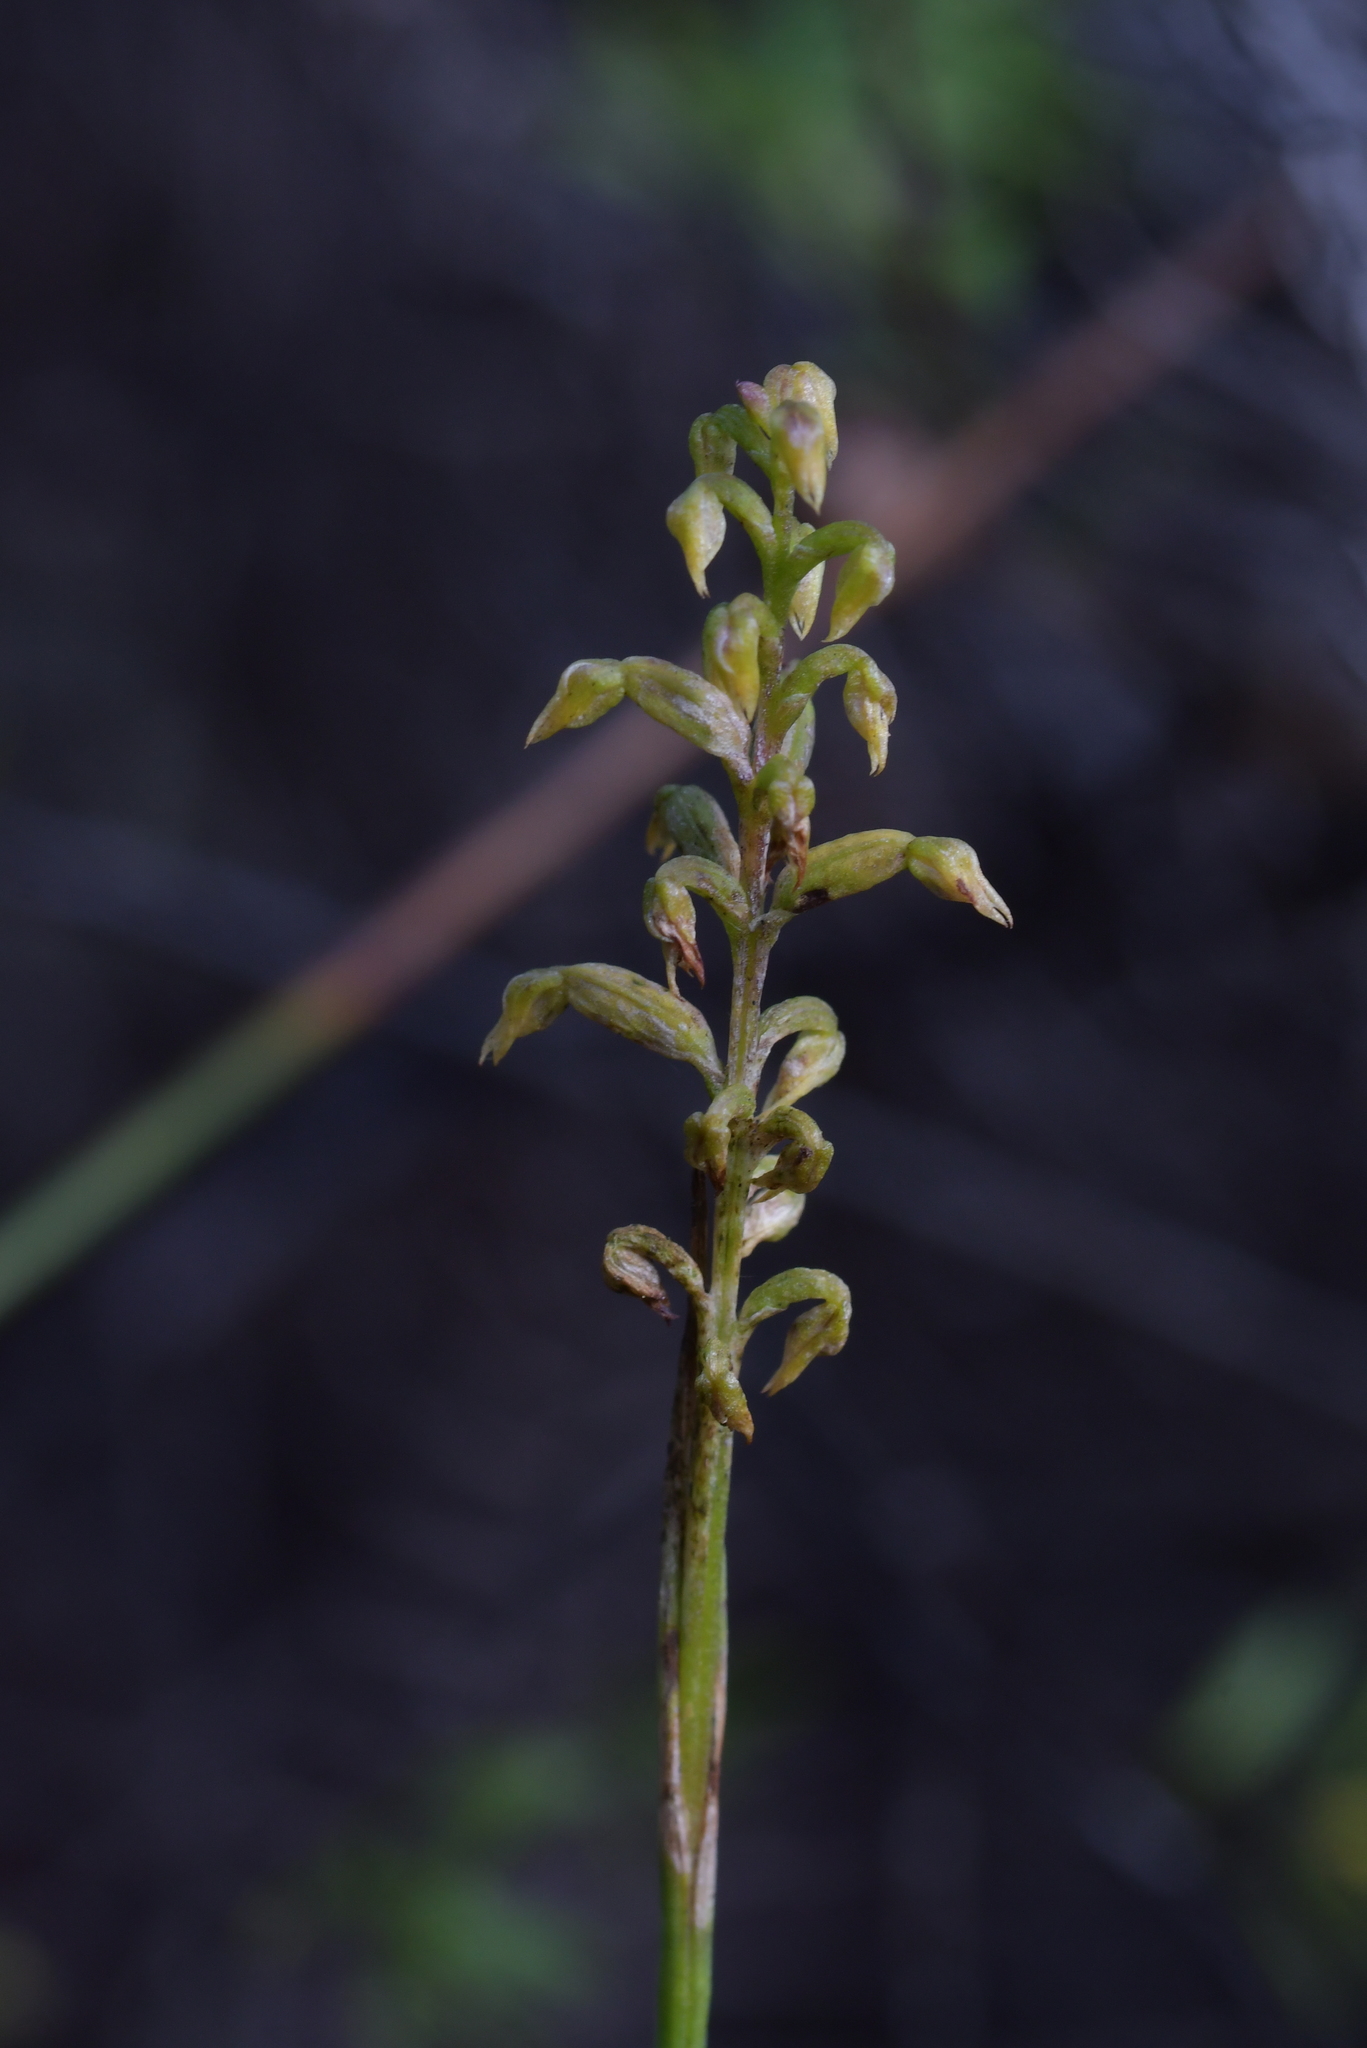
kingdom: Plantae
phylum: Tracheophyta
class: Liliopsida
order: Asparagales
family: Orchidaceae
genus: Genoplesium
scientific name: Genoplesium pumilum
